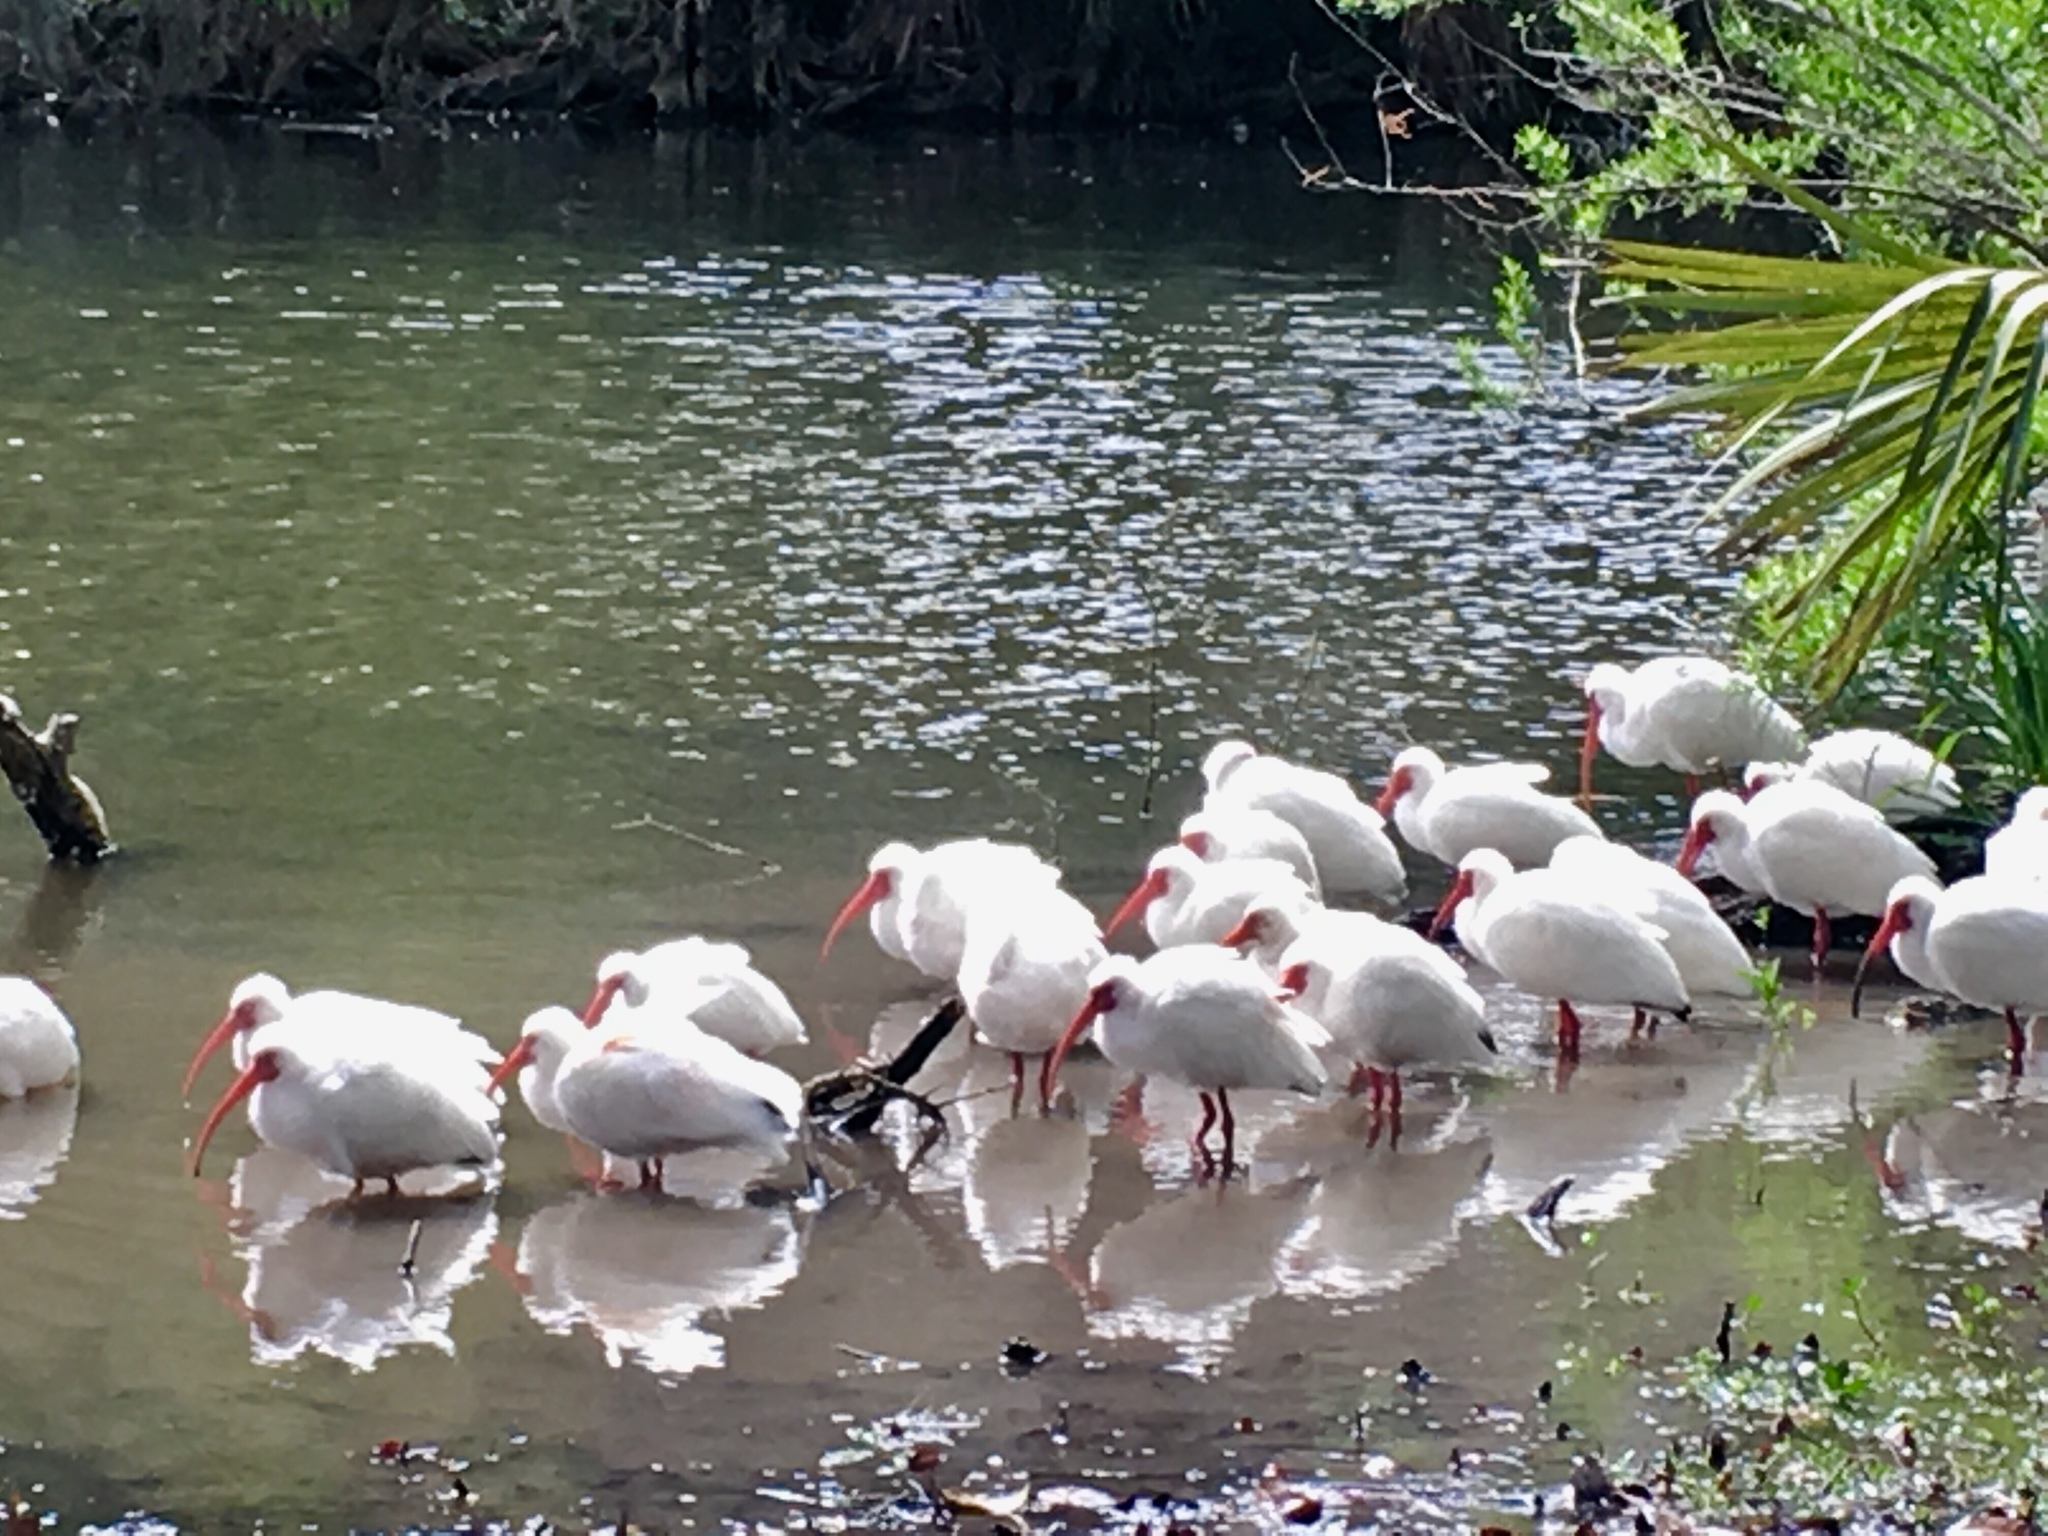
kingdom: Animalia
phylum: Chordata
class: Aves
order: Pelecaniformes
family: Threskiornithidae
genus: Eudocimus
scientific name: Eudocimus albus
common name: White ibis
